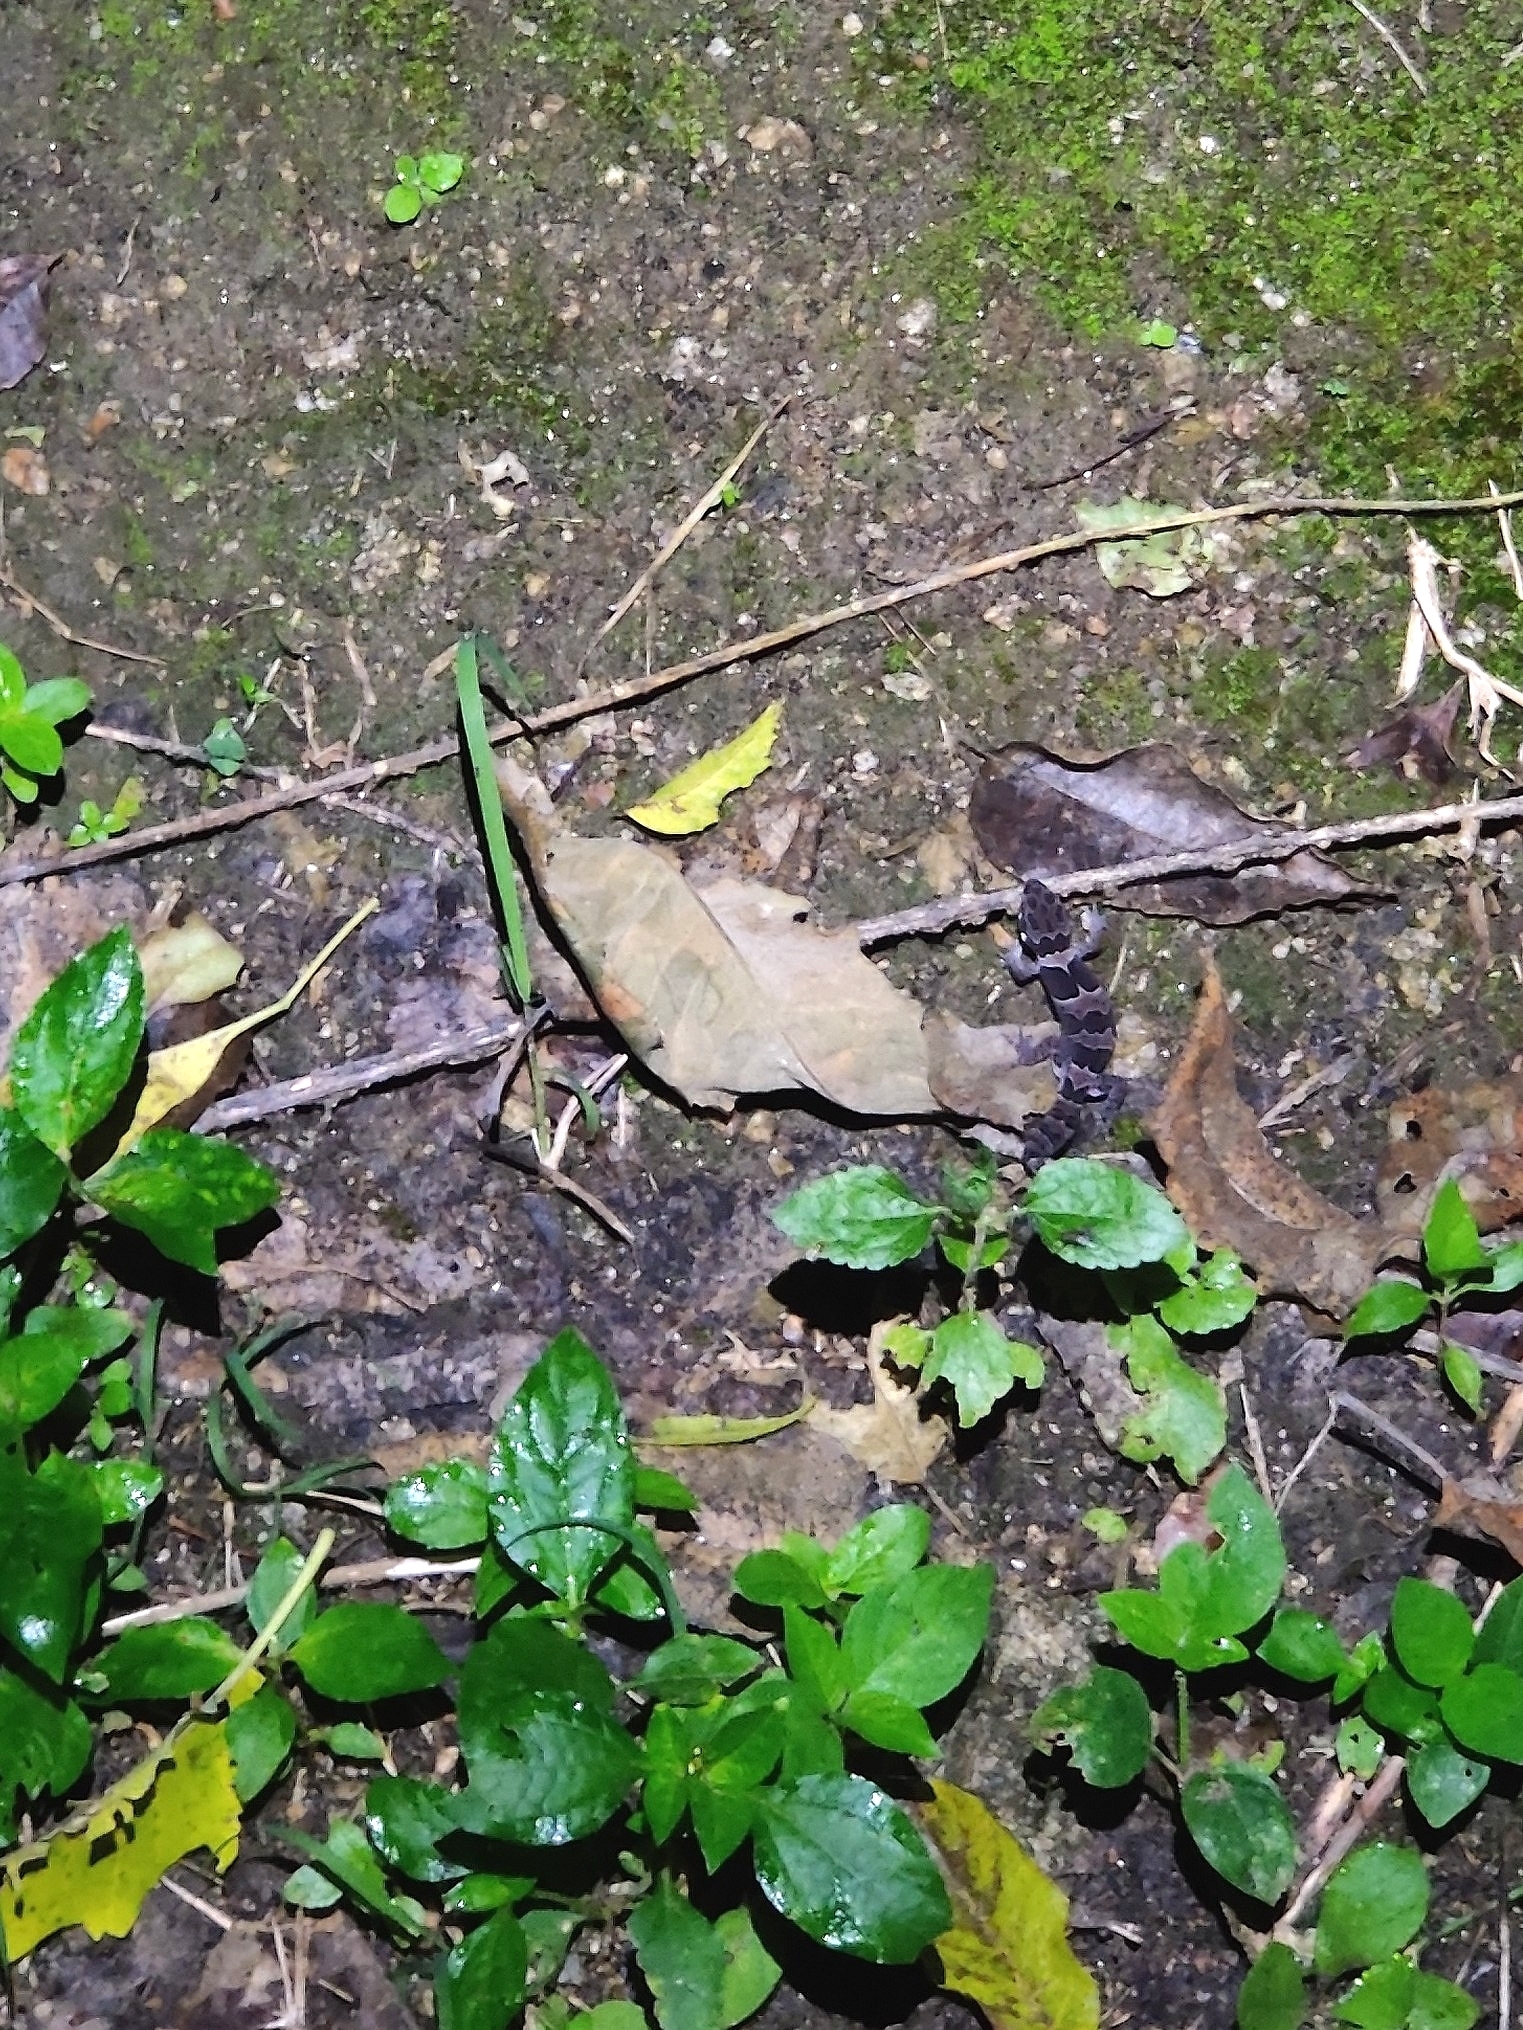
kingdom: Animalia
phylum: Chordata
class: Squamata
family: Gekkonidae
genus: Cyrtodactylus
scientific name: Cyrtodactylus collegalensis
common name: Forest spotted gecko
